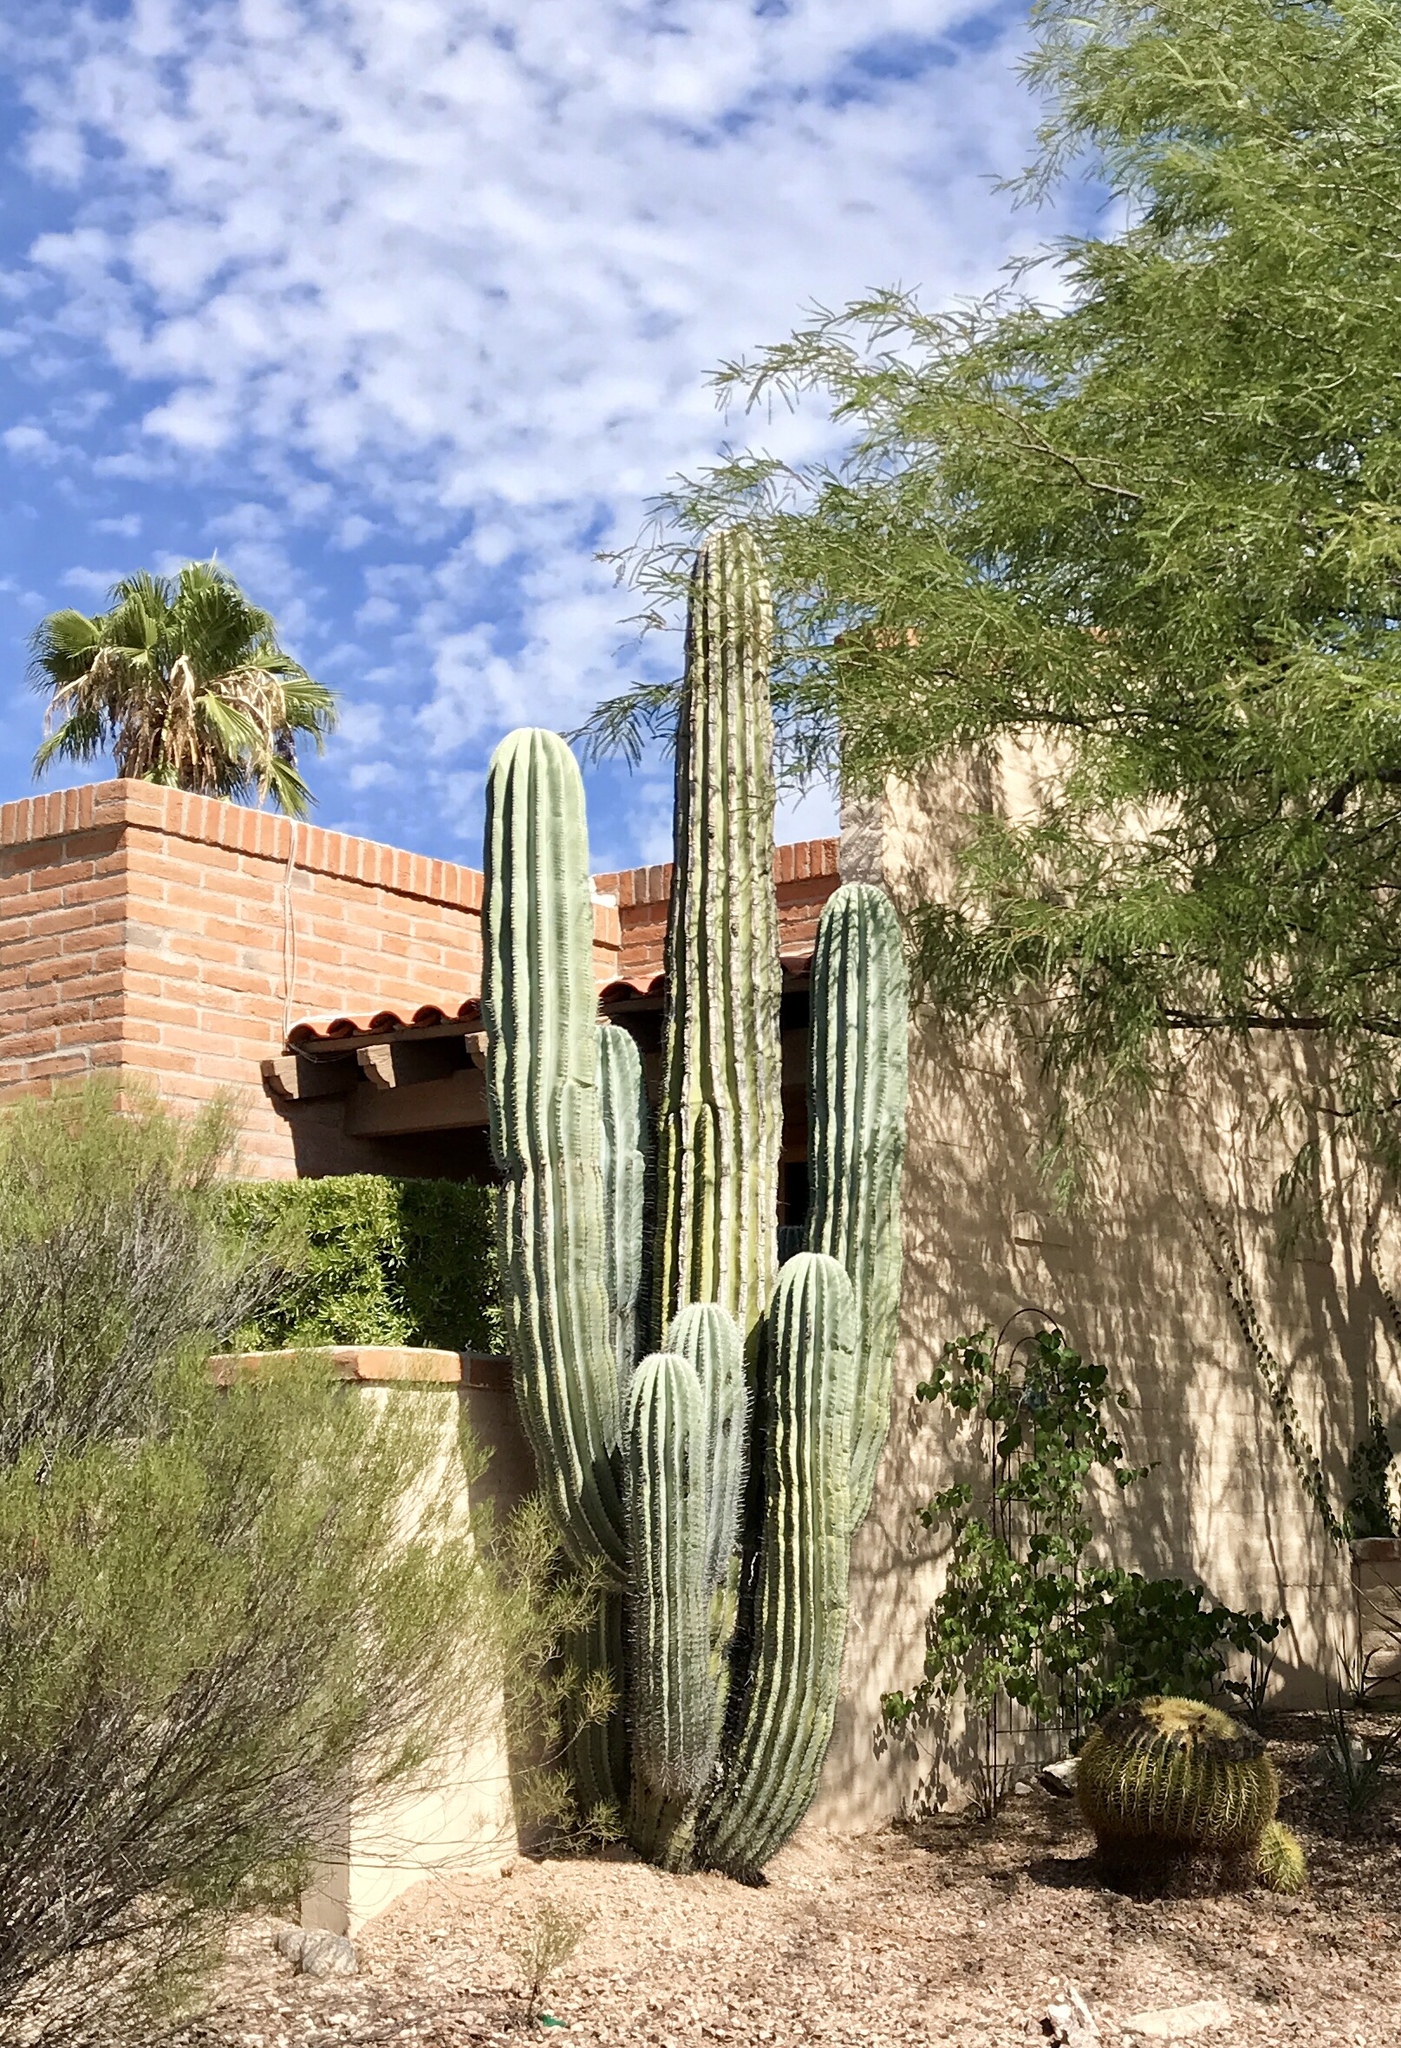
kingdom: Plantae
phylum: Tracheophyta
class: Magnoliopsida
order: Caryophyllales
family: Cactaceae
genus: Carnegiea
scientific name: Carnegiea gigantea
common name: Saguaro
